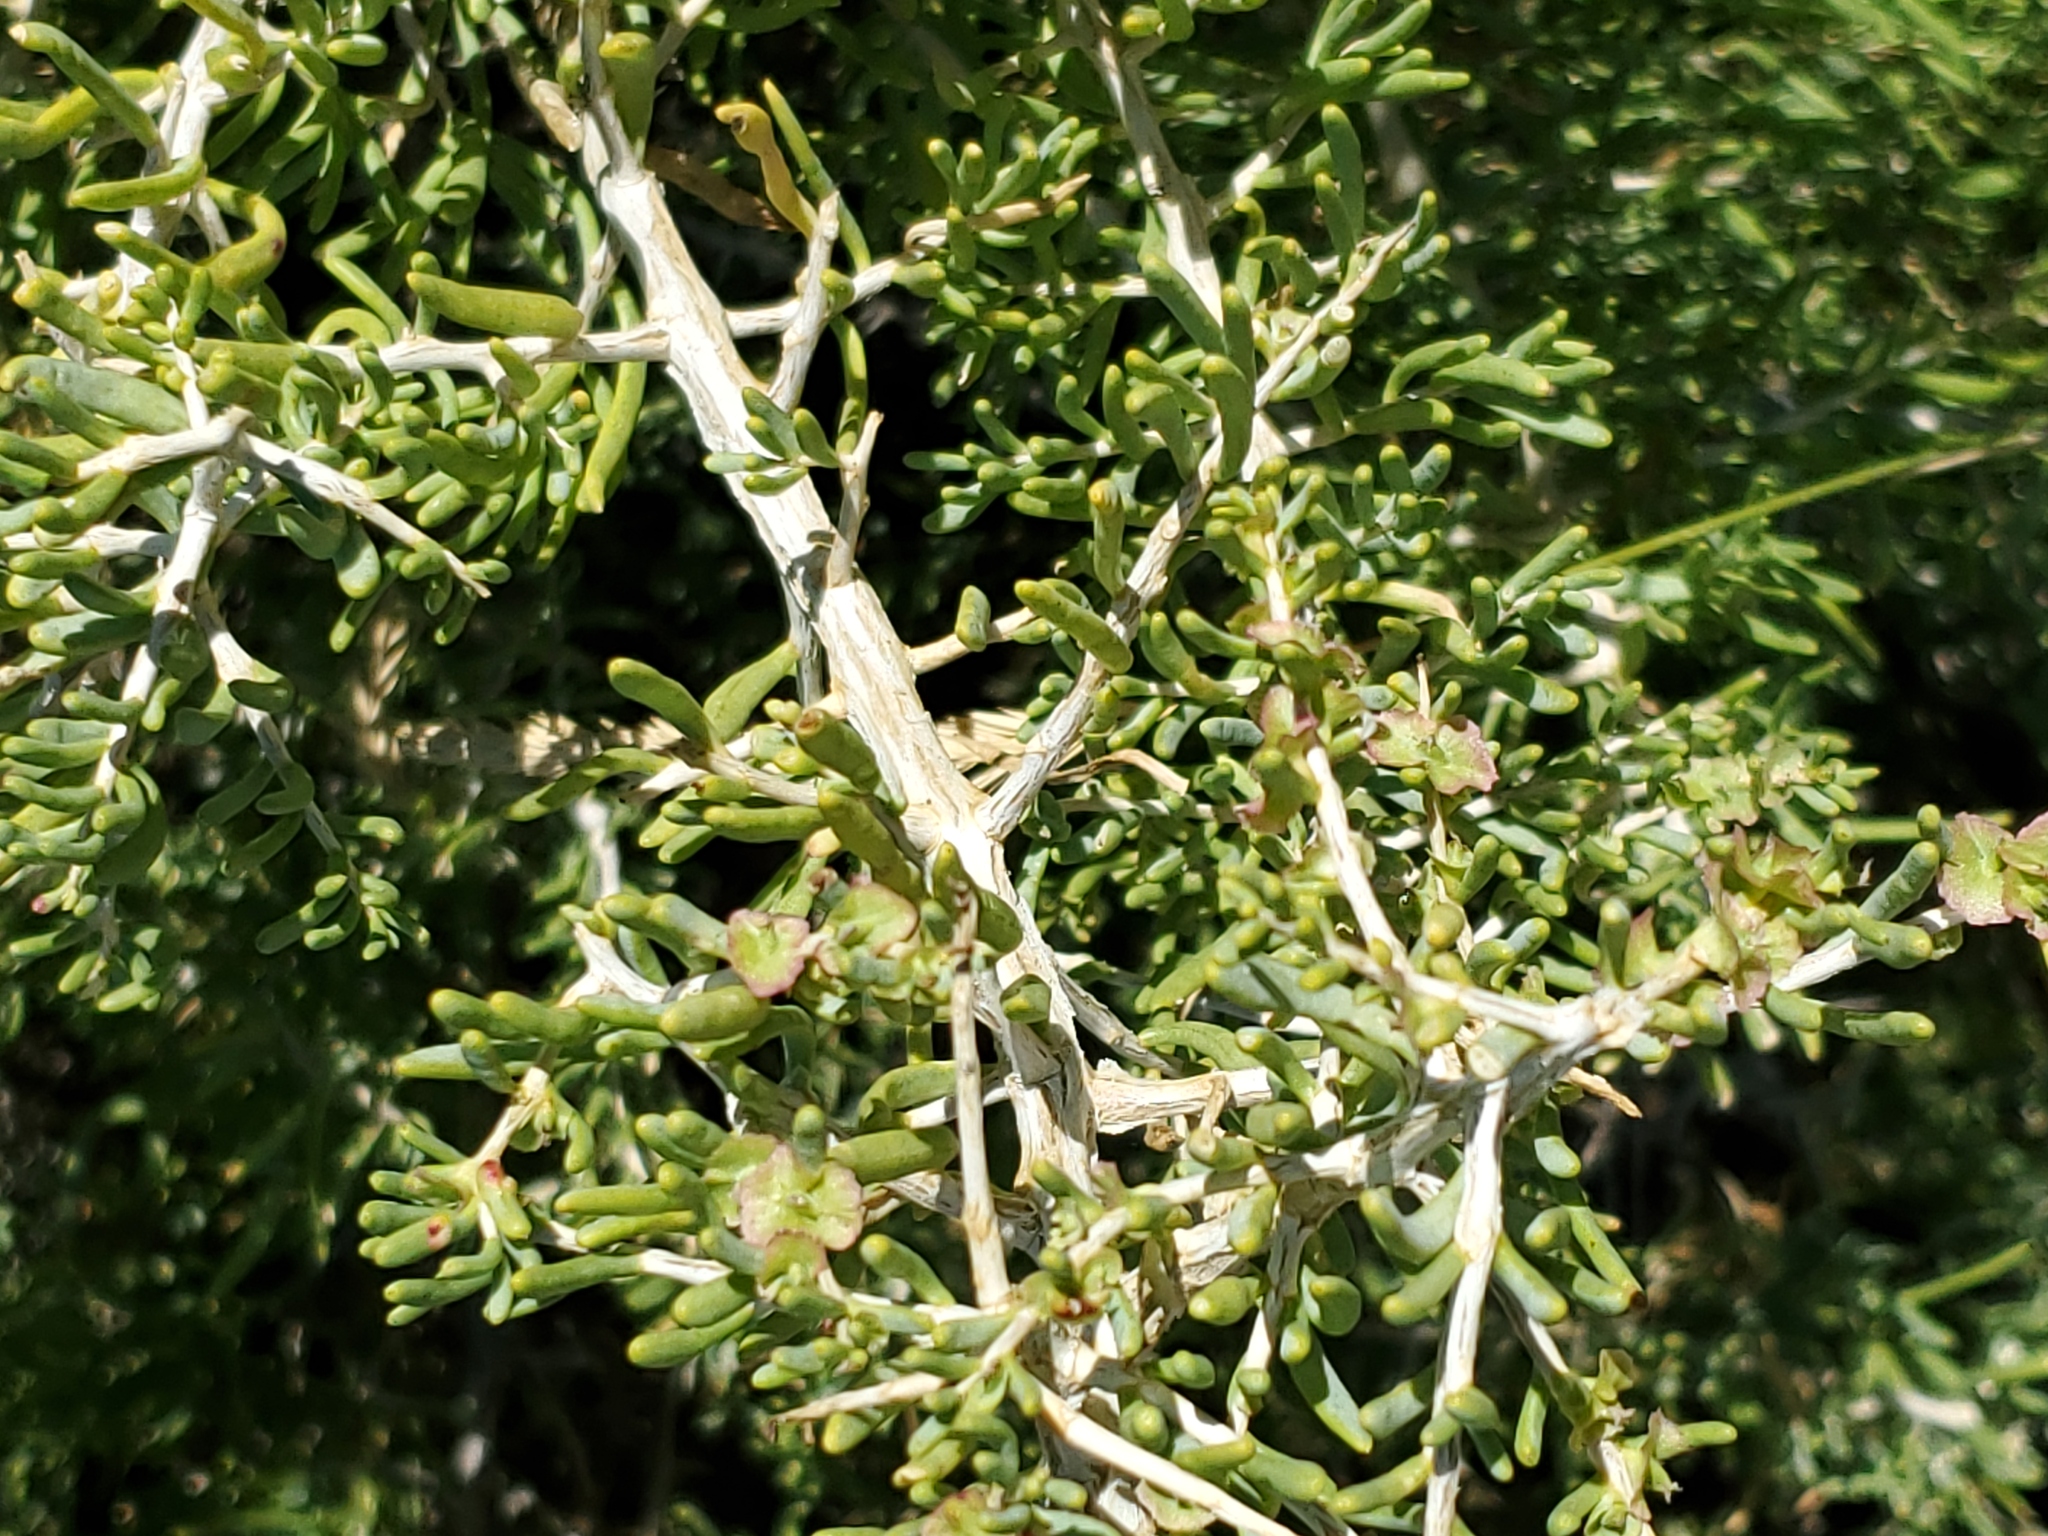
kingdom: Plantae
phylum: Tracheophyta
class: Magnoliopsida
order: Caryophyllales
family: Sarcobataceae
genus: Sarcobatus
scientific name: Sarcobatus vermiculatus
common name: Greasewood
